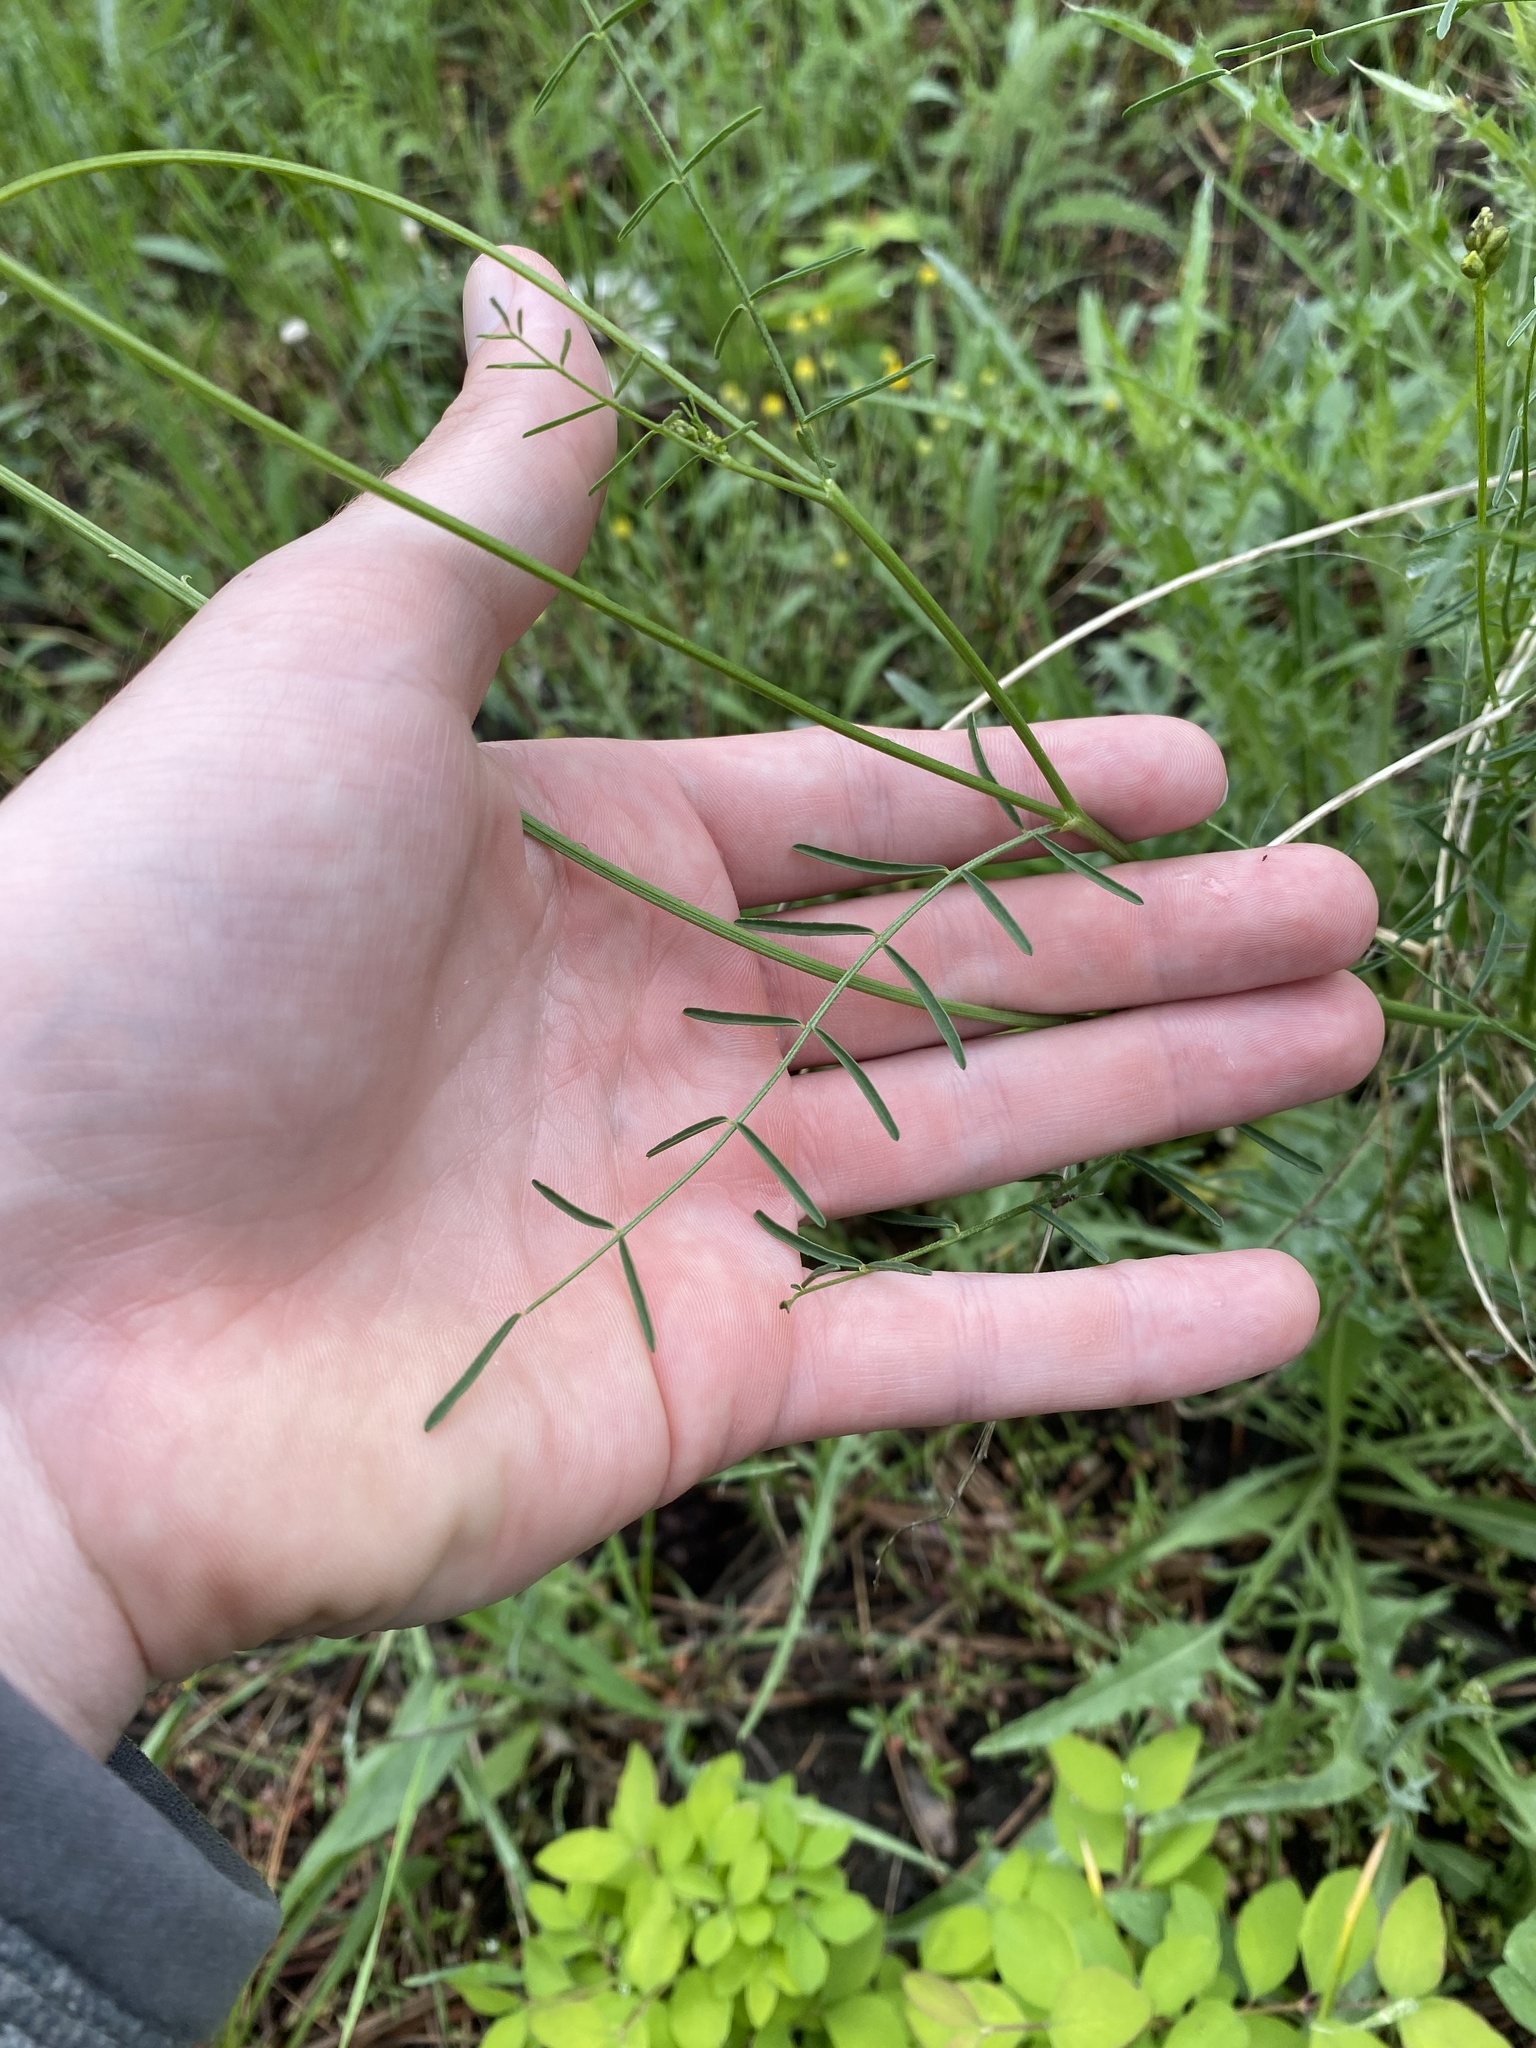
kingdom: Plantae
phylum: Tracheophyta
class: Magnoliopsida
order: Fabales
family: Fabaceae
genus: Astragalus
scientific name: Astragalus filipes
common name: Basalt milk-vetch
